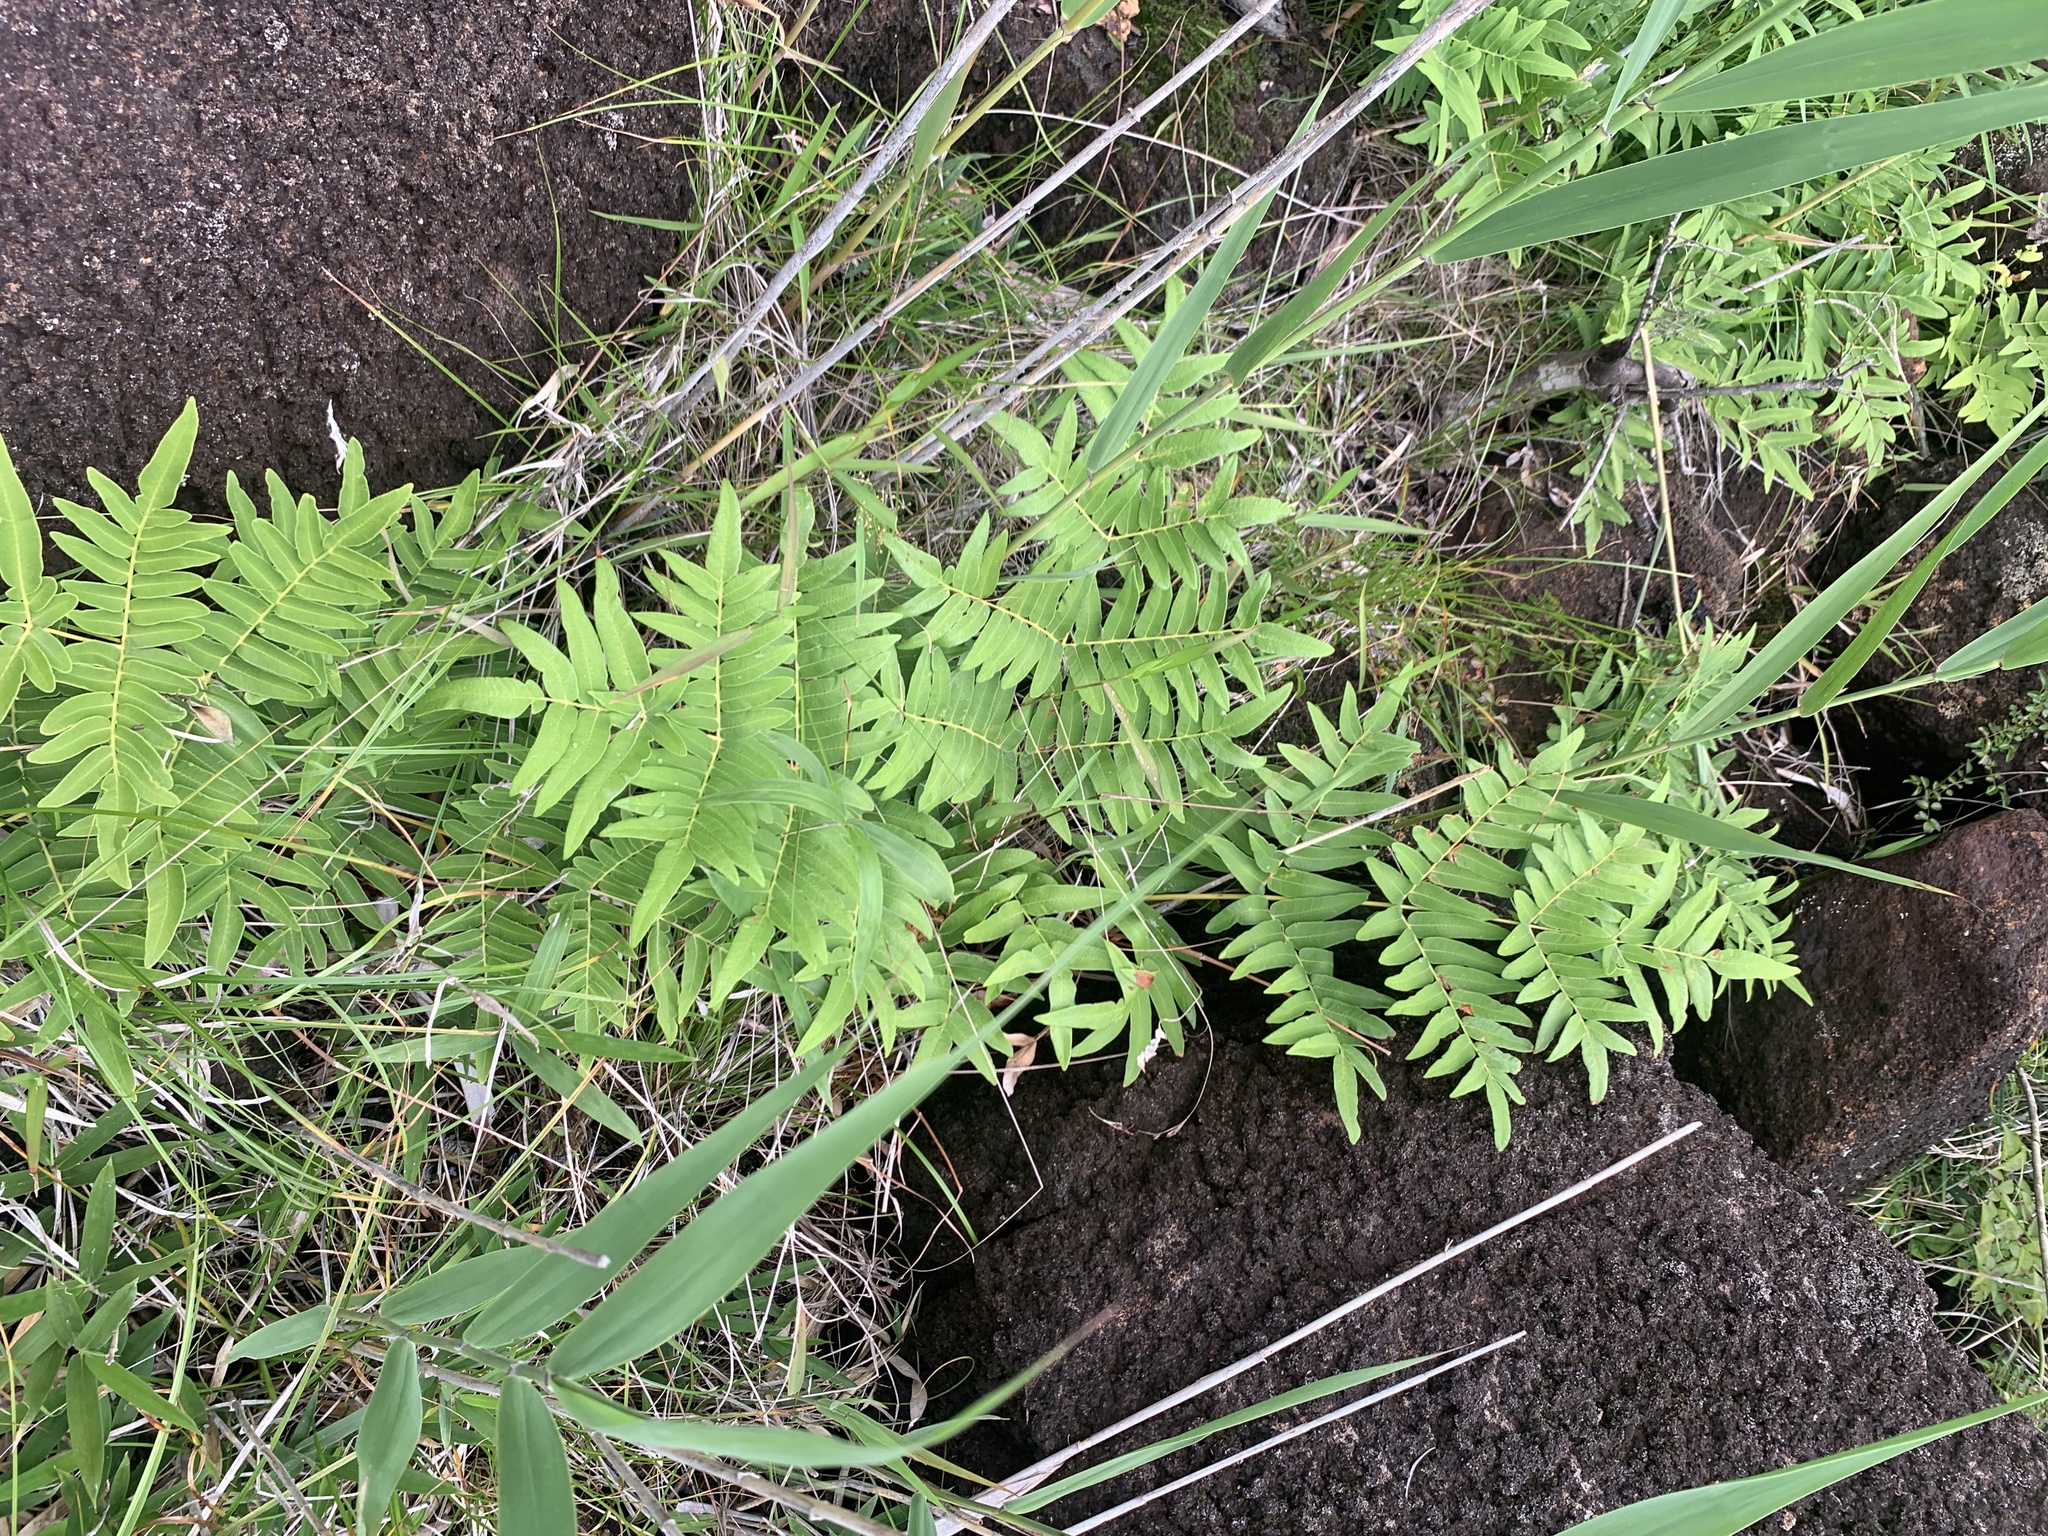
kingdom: Plantae
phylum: Tracheophyta
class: Polypodiopsida
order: Osmundales
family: Osmundaceae
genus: Osmunda
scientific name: Osmunda japonica
